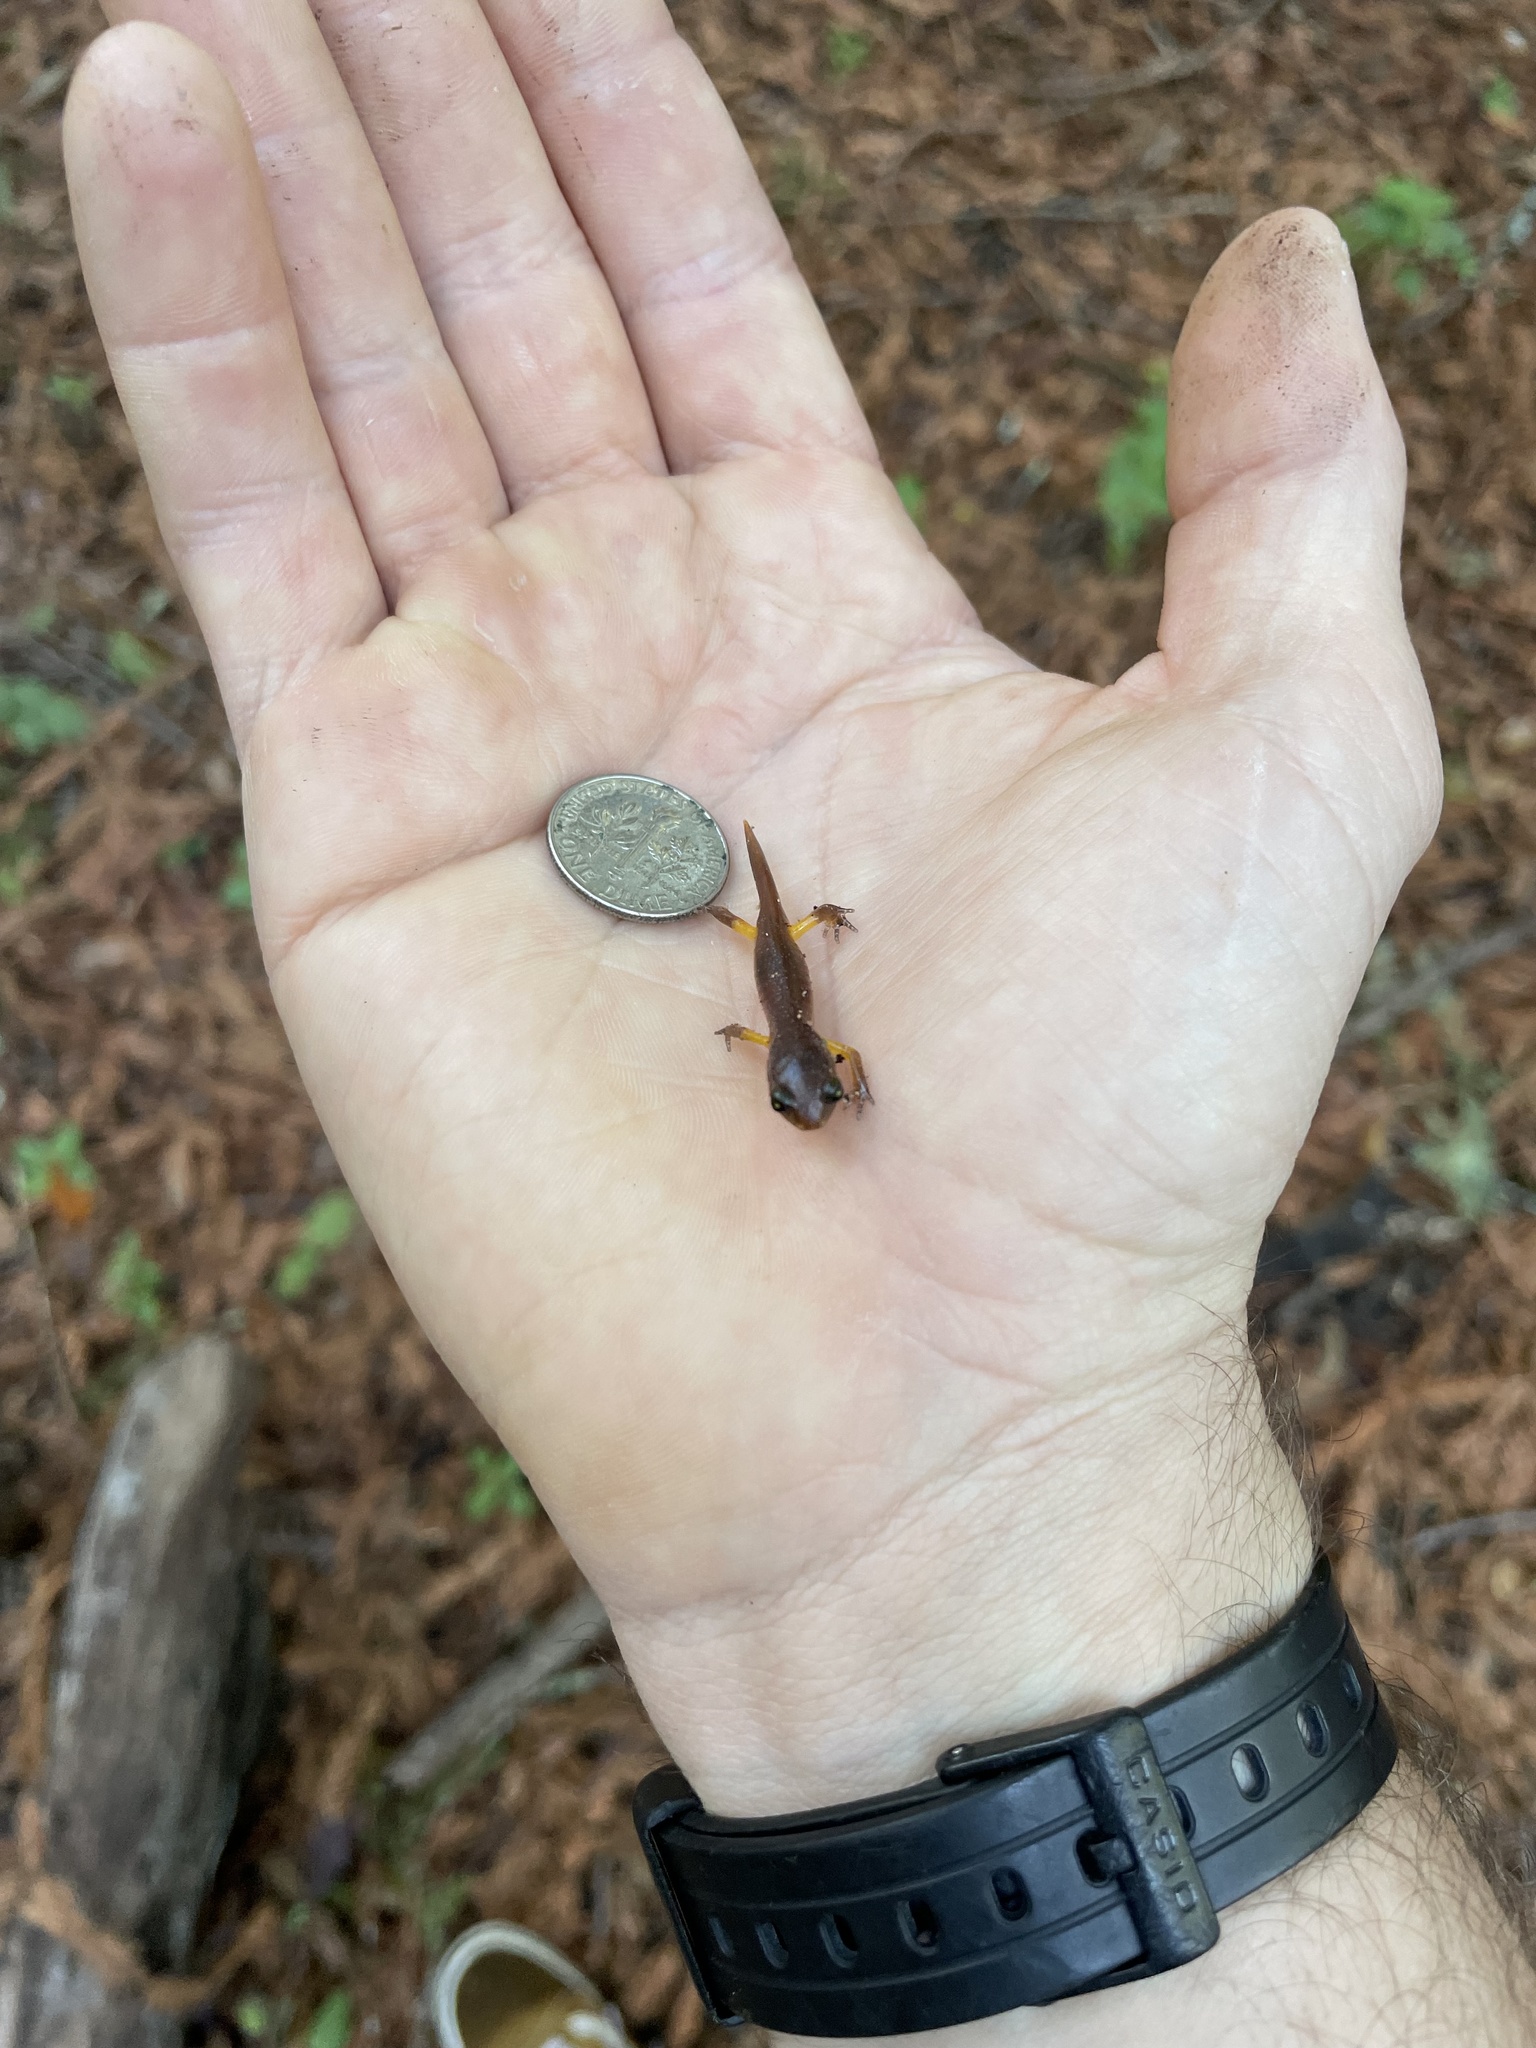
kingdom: Animalia
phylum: Chordata
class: Amphibia
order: Caudata
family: Plethodontidae
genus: Ensatina
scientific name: Ensatina eschscholtzii
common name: Ensatina
